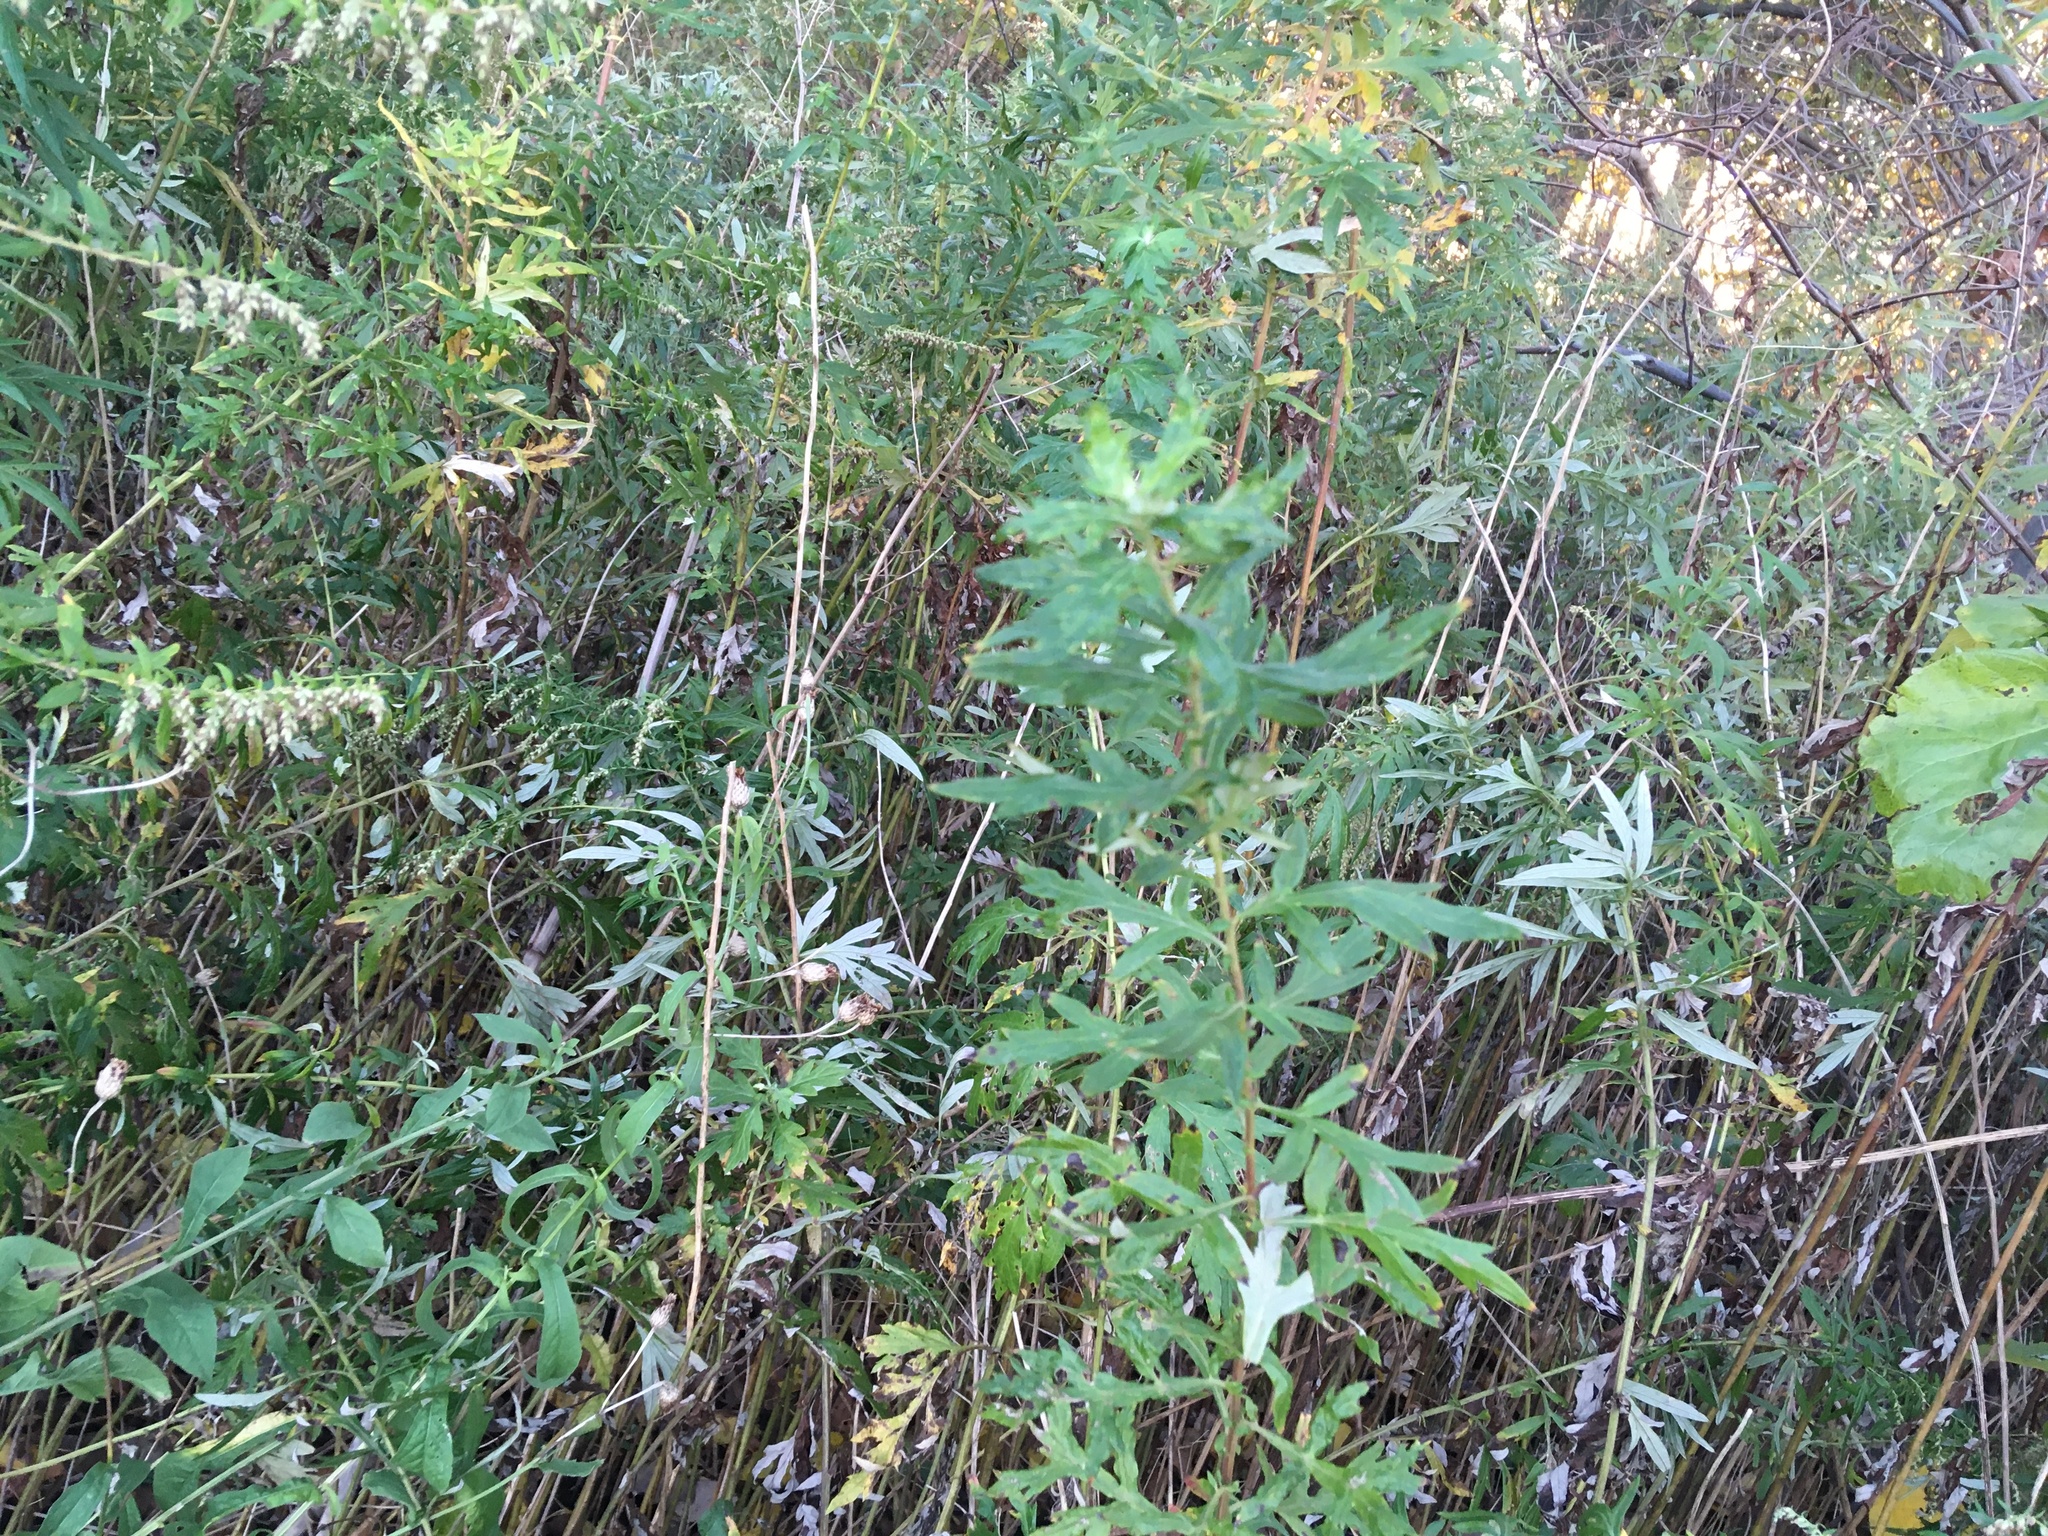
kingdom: Plantae
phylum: Tracheophyta
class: Magnoliopsida
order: Asterales
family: Asteraceae
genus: Artemisia
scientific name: Artemisia vulgaris
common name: Mugwort
